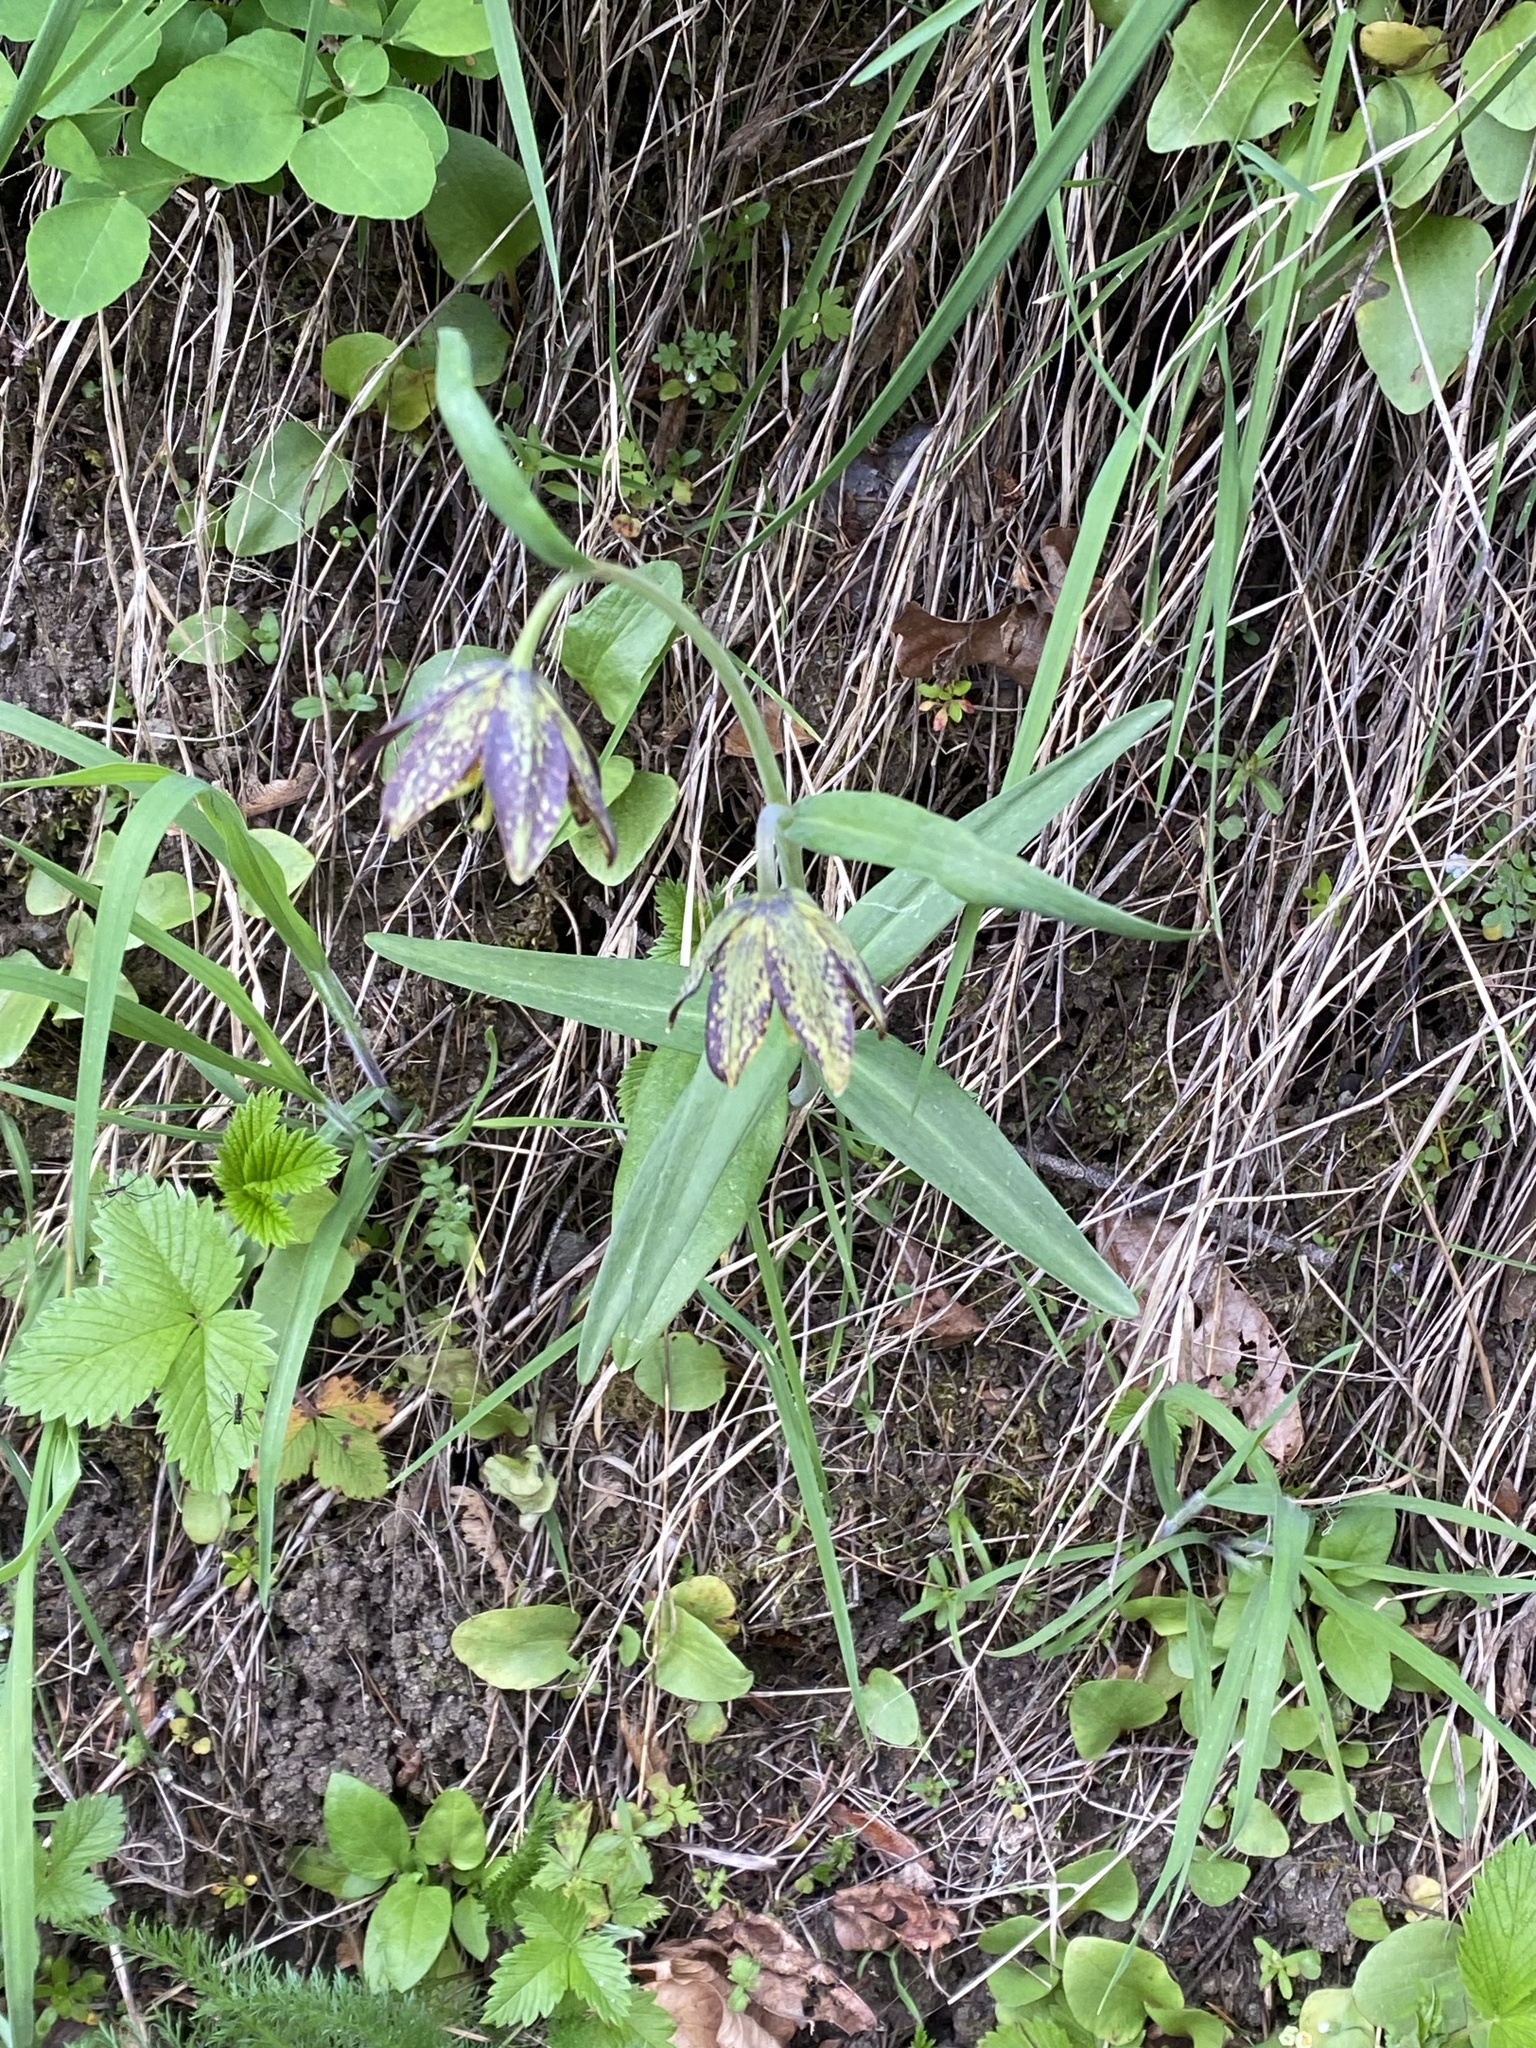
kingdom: Plantae
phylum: Tracheophyta
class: Liliopsida
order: Liliales
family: Liliaceae
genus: Fritillaria
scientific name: Fritillaria affinis
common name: Ojai fritillary
